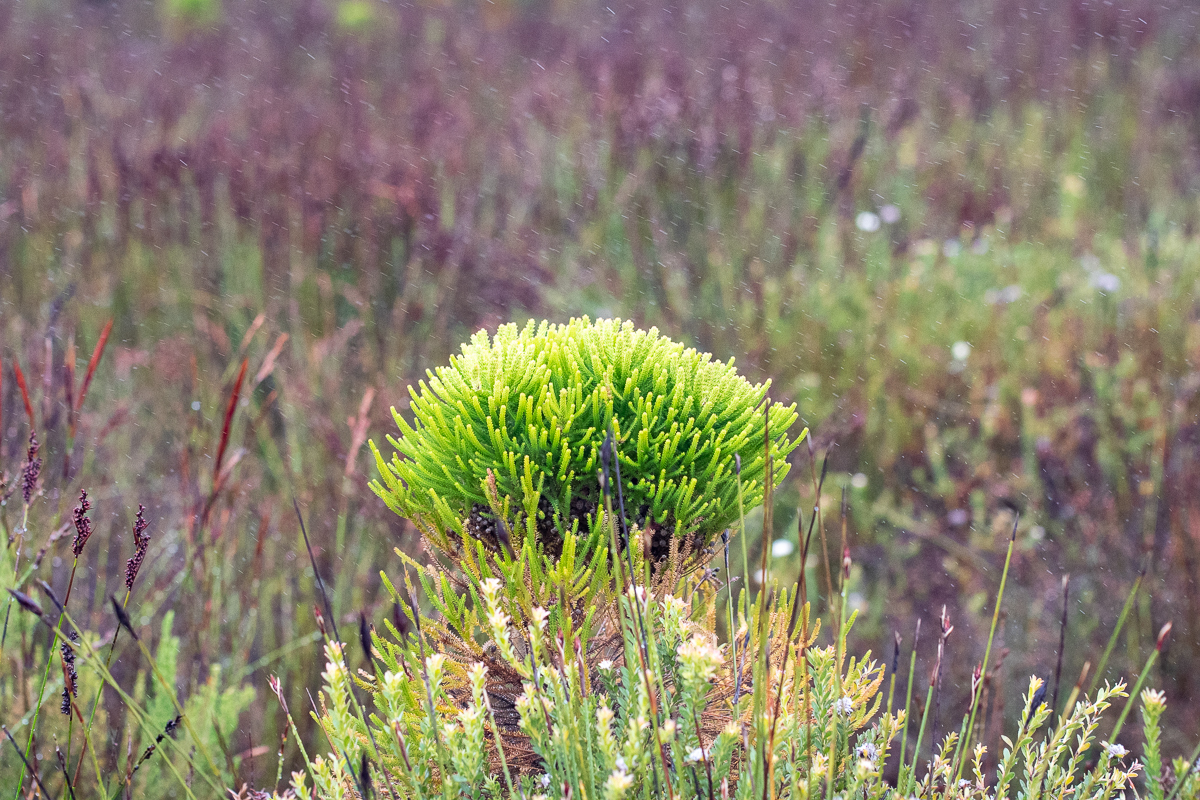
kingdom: Plantae
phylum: Tracheophyta
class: Magnoliopsida
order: Bruniales
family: Bruniaceae
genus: Berzelia
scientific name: Berzelia alopecurioides
